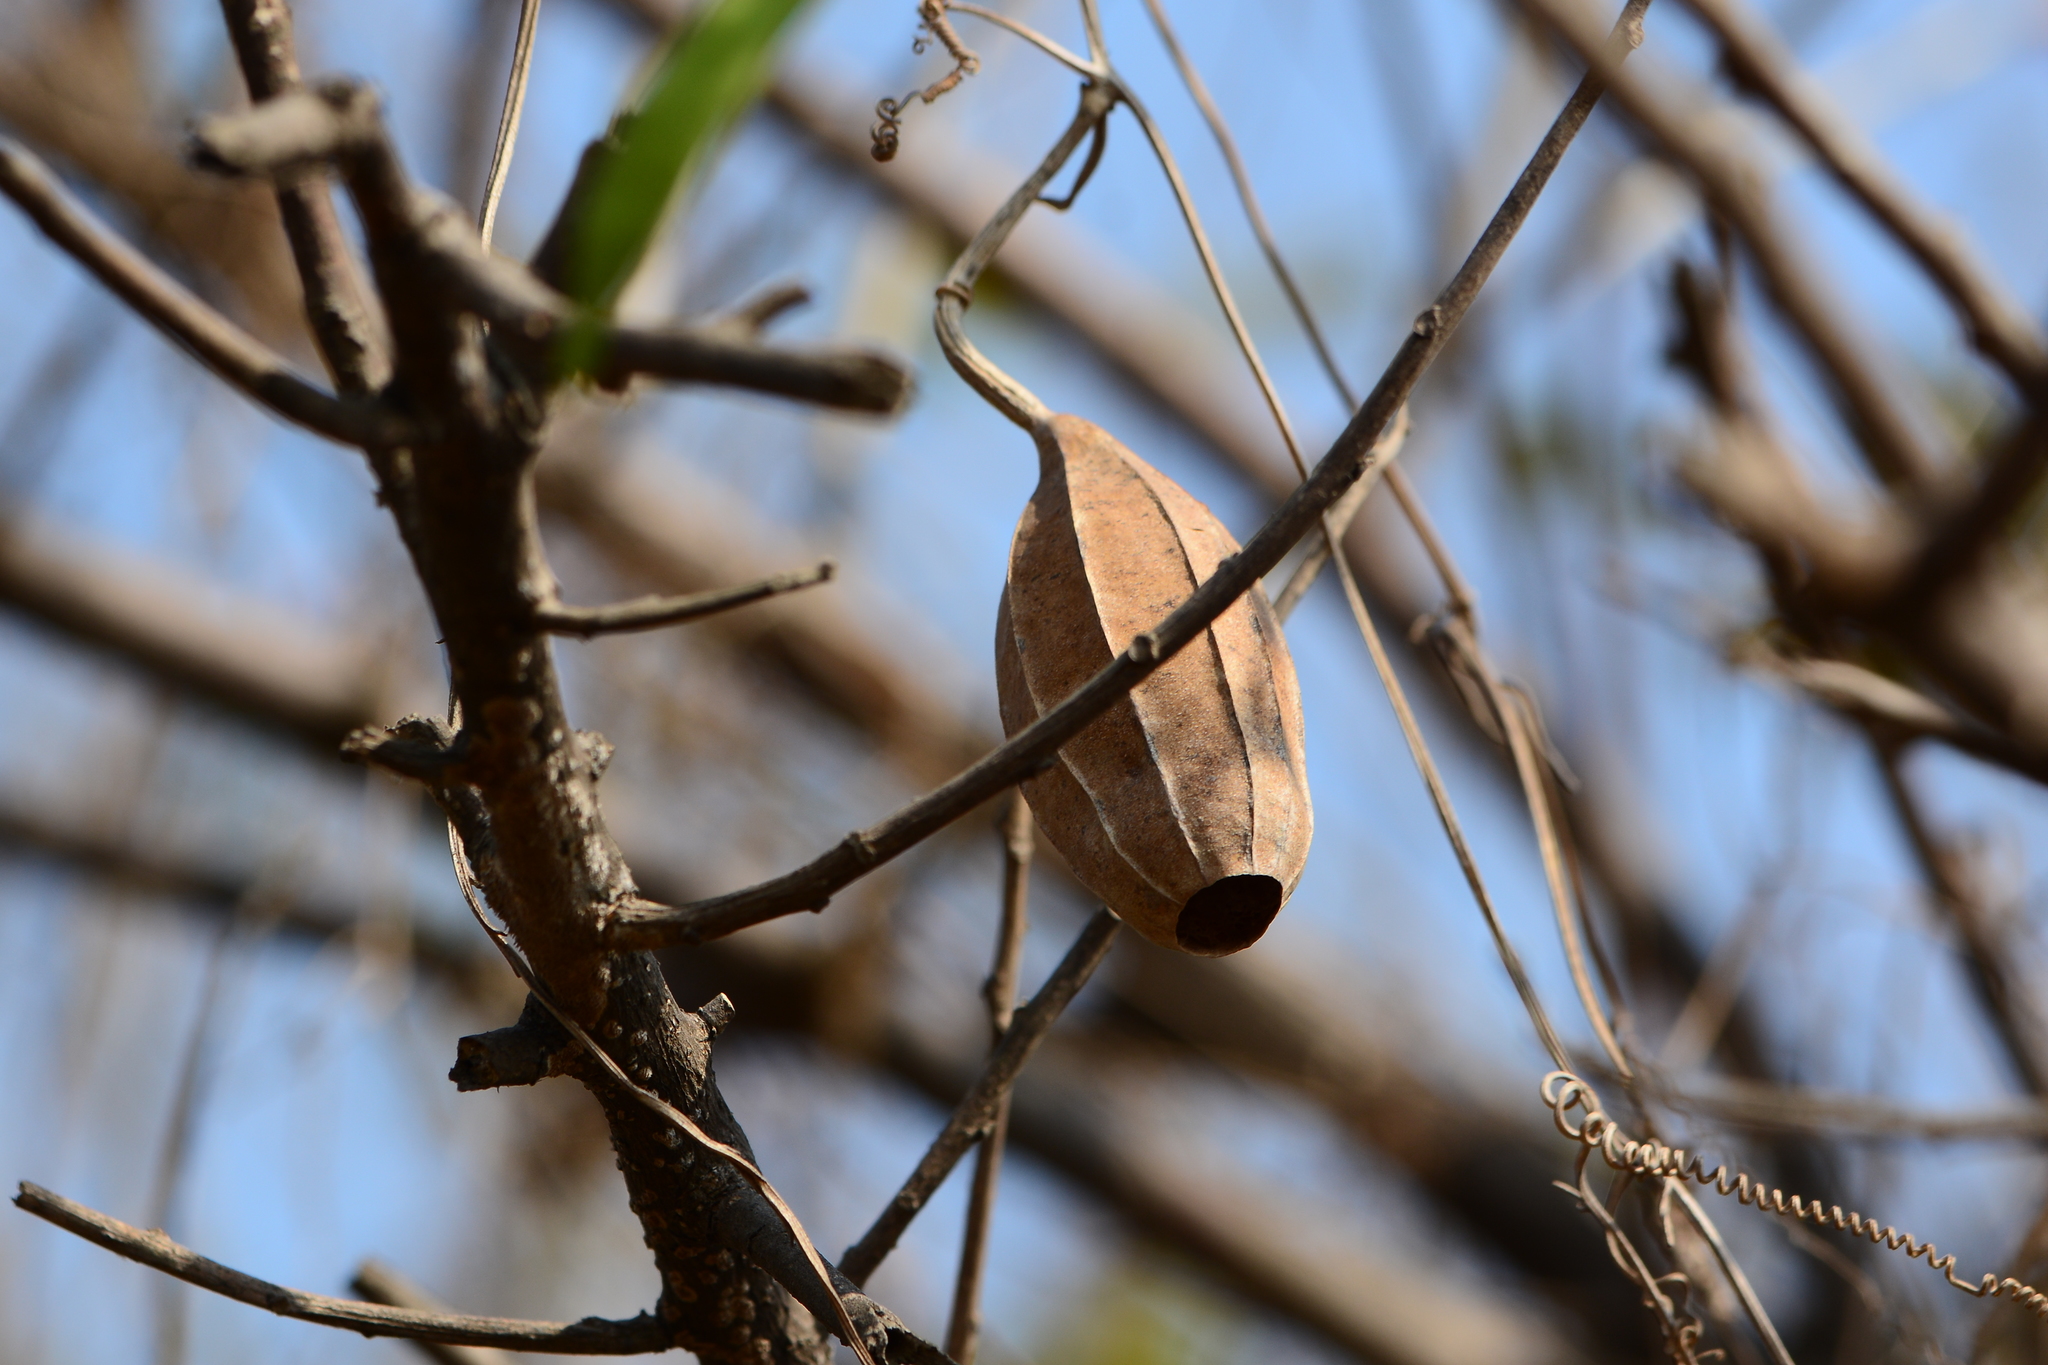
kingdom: Plantae
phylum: Tracheophyta
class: Magnoliopsida
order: Cucurbitales
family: Cucurbitaceae
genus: Luffa
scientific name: Luffa acutangula
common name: Sinkwa towelsponge
